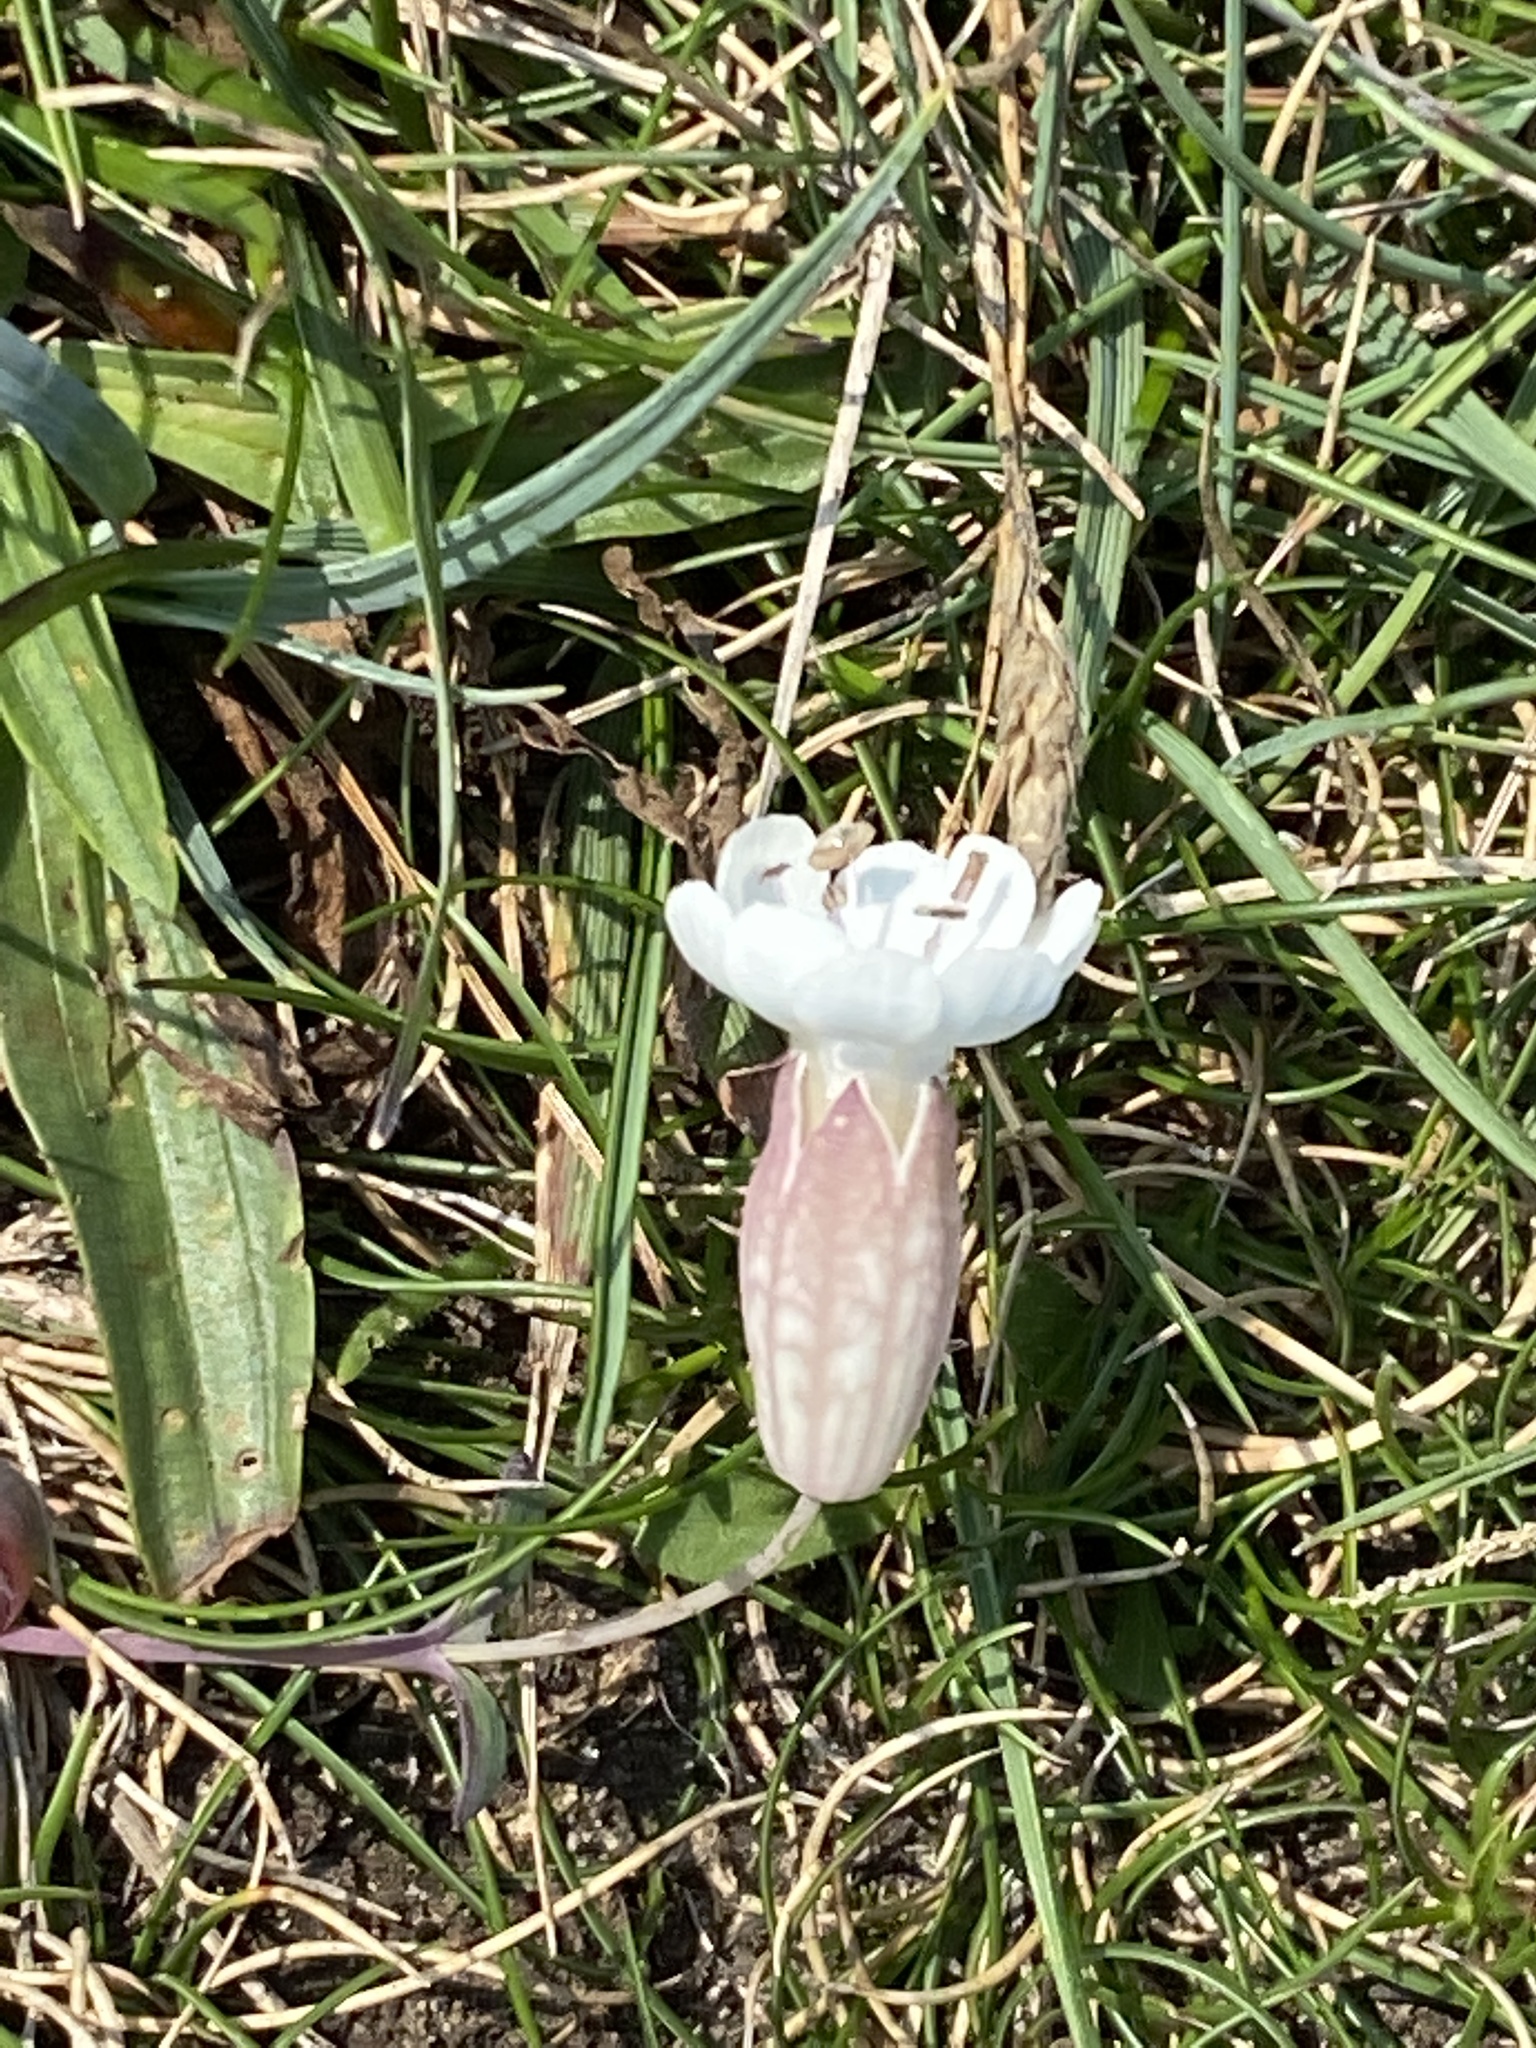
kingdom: Plantae
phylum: Tracheophyta
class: Magnoliopsida
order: Caryophyllales
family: Caryophyllaceae
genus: Silene
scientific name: Silene uniflora
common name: Sea campion
